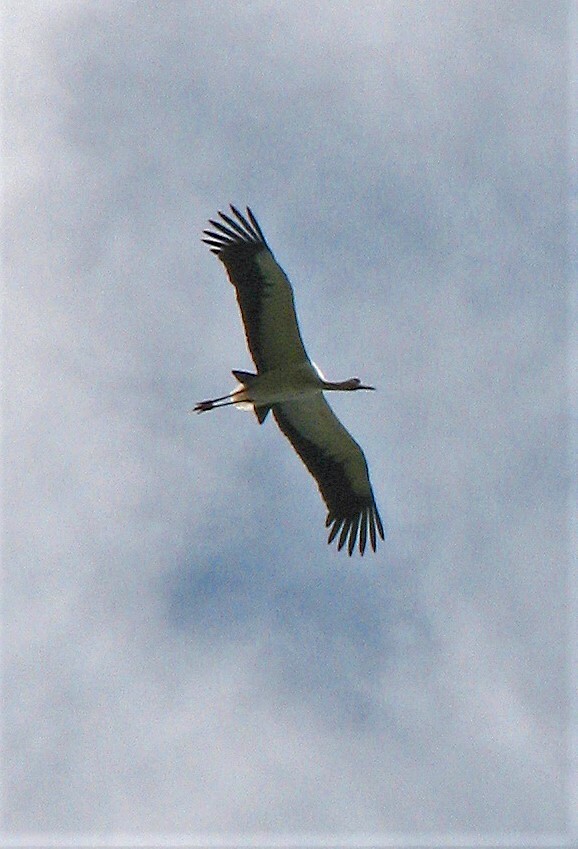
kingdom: Animalia
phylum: Chordata
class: Aves
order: Ciconiiformes
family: Ciconiidae
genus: Ciconia
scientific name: Ciconia maguari
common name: Maguari stork
